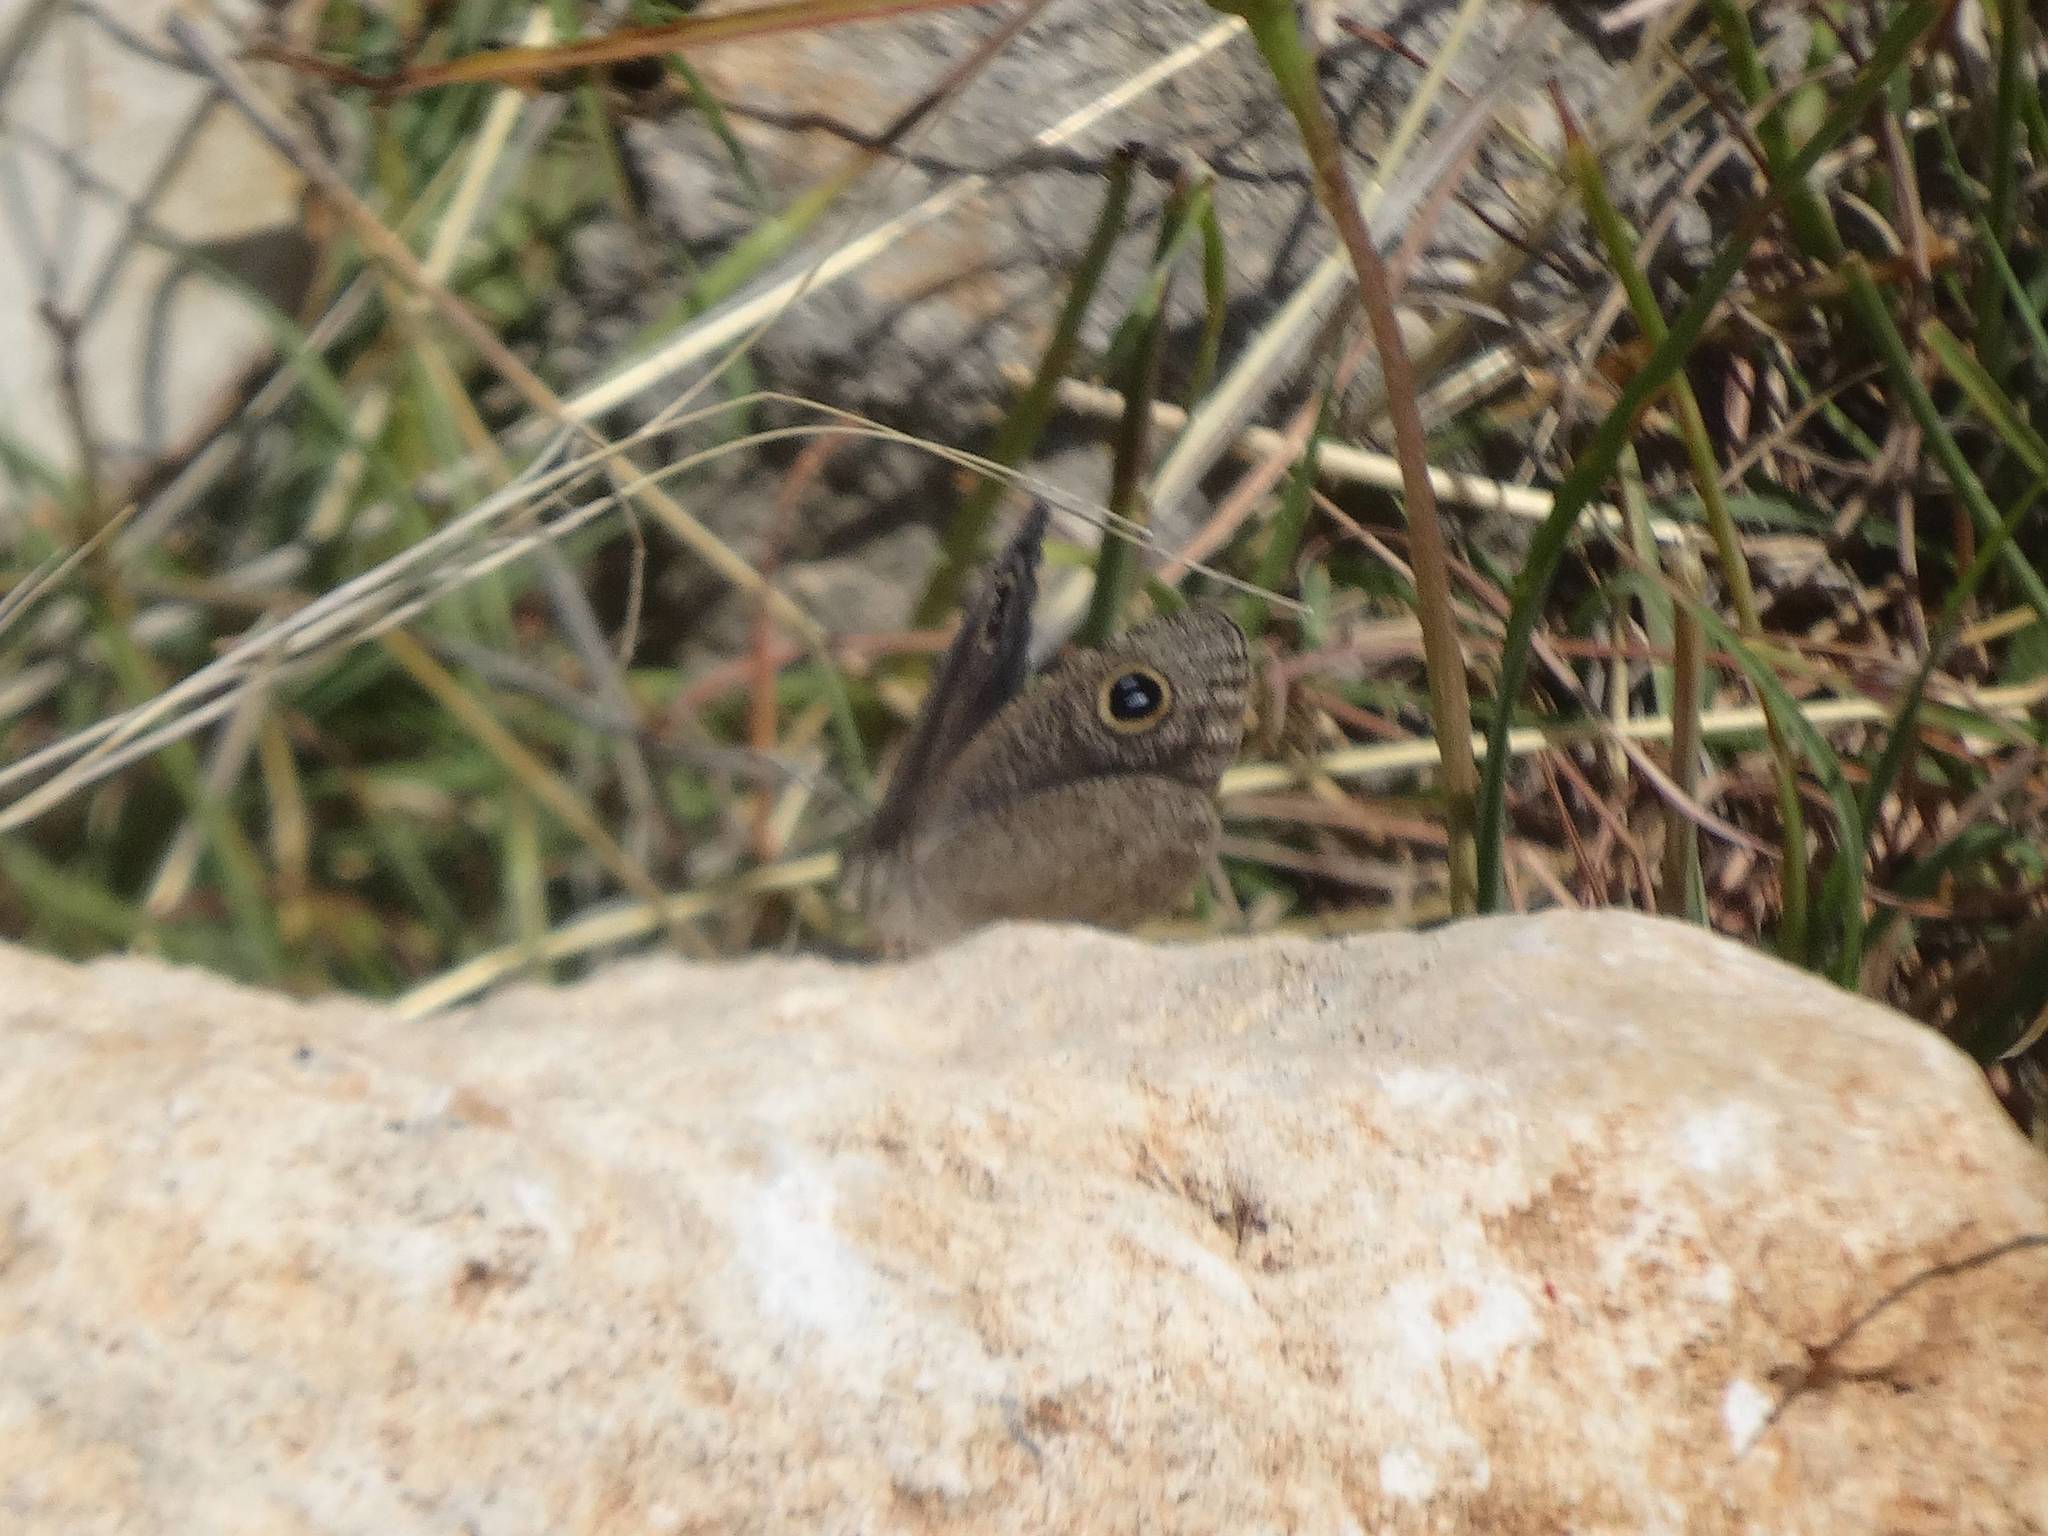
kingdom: Animalia
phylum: Arthropoda
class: Insecta
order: Lepidoptera
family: Nymphalidae
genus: Ypthima
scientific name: Ypthima asterope
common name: African ringlet
